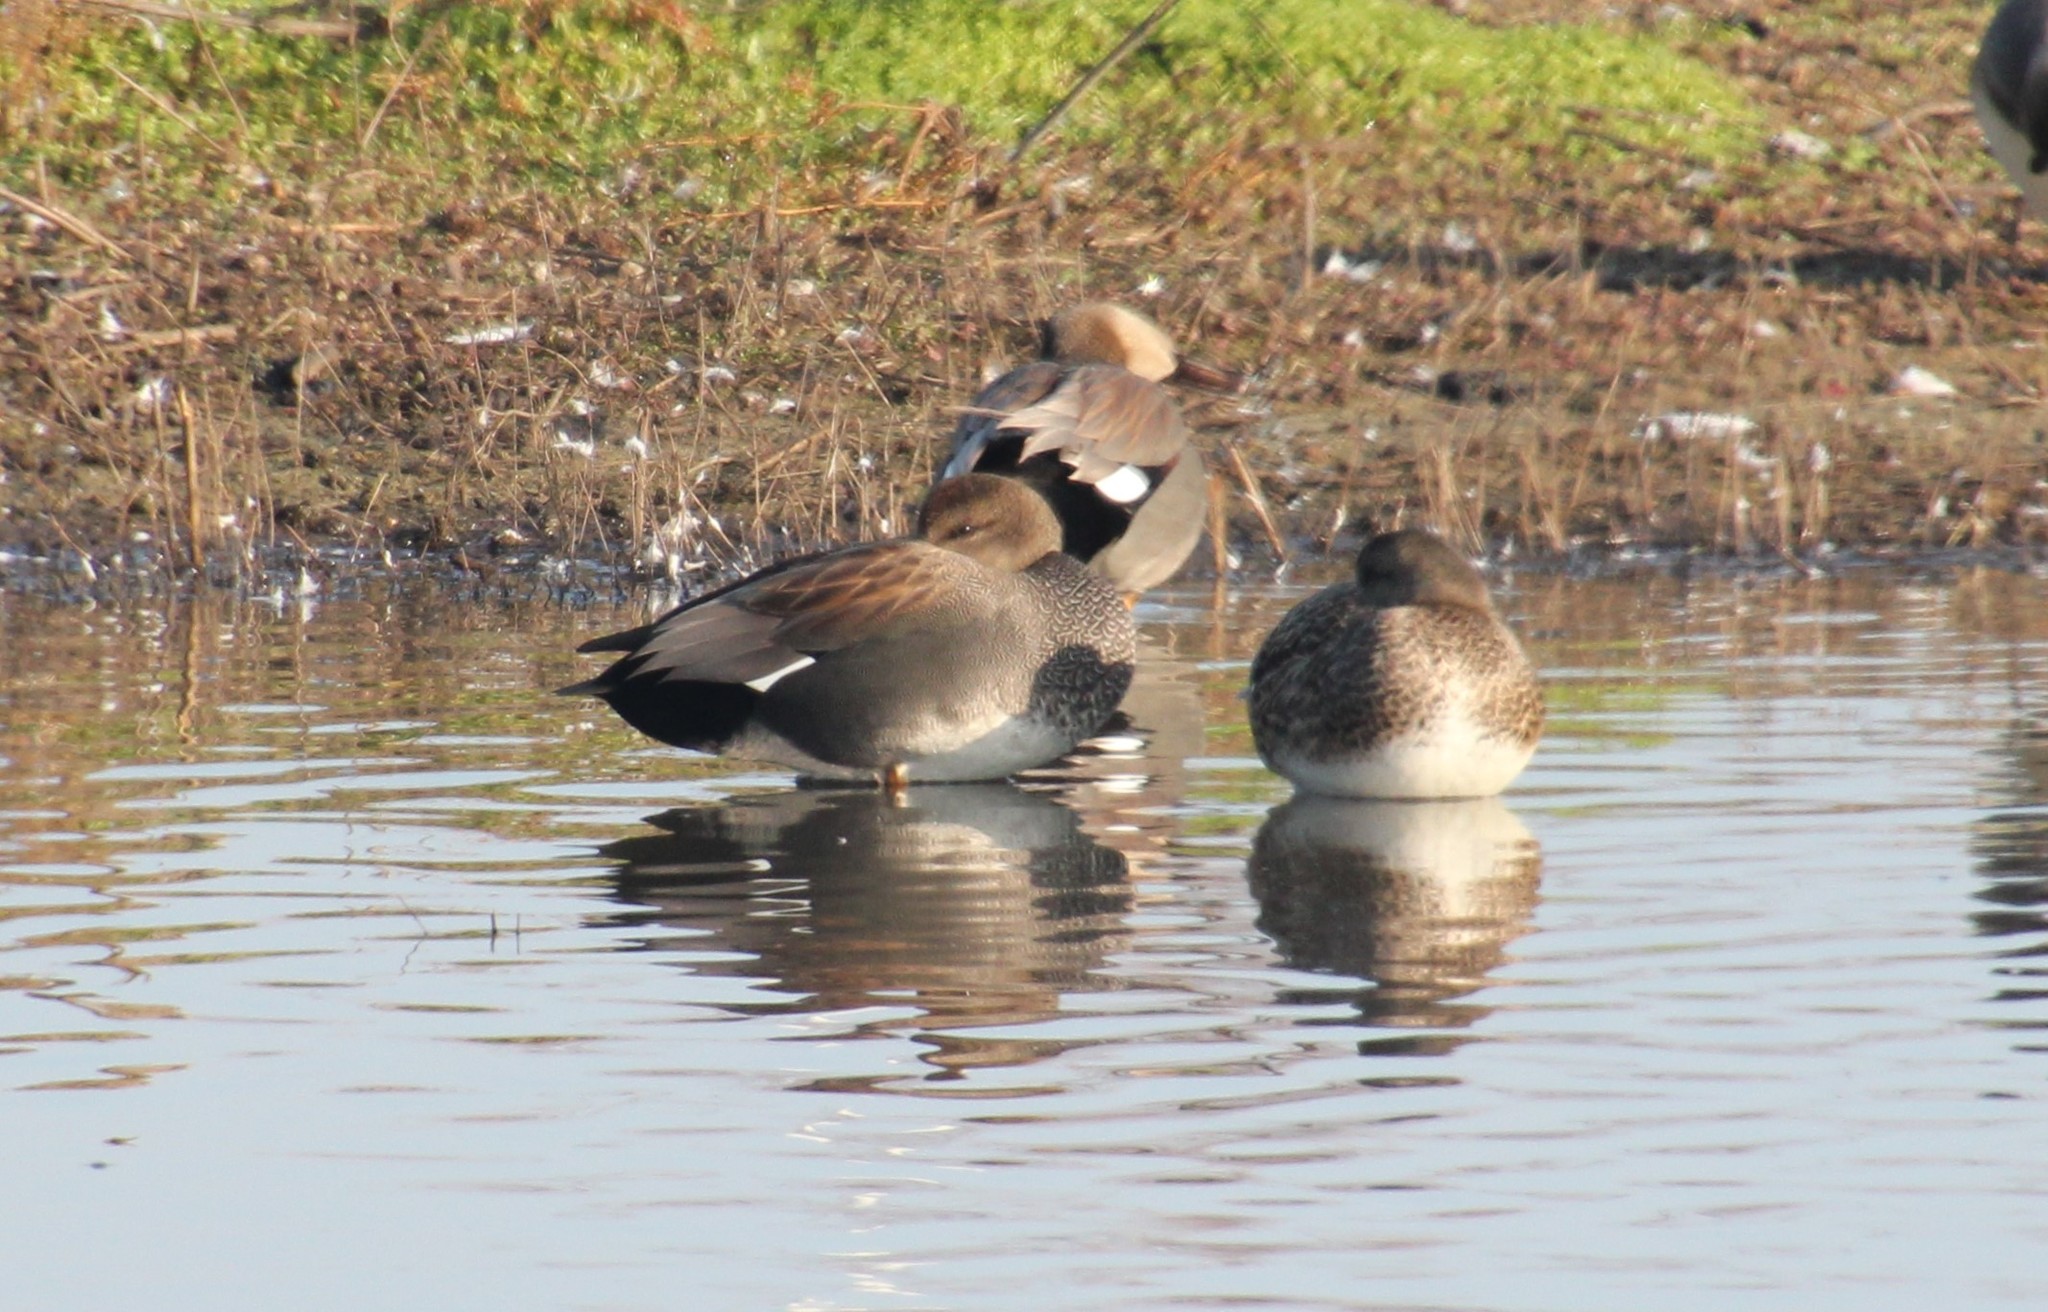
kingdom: Animalia
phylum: Chordata
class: Aves
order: Anseriformes
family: Anatidae
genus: Mareca
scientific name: Mareca strepera
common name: Gadwall
